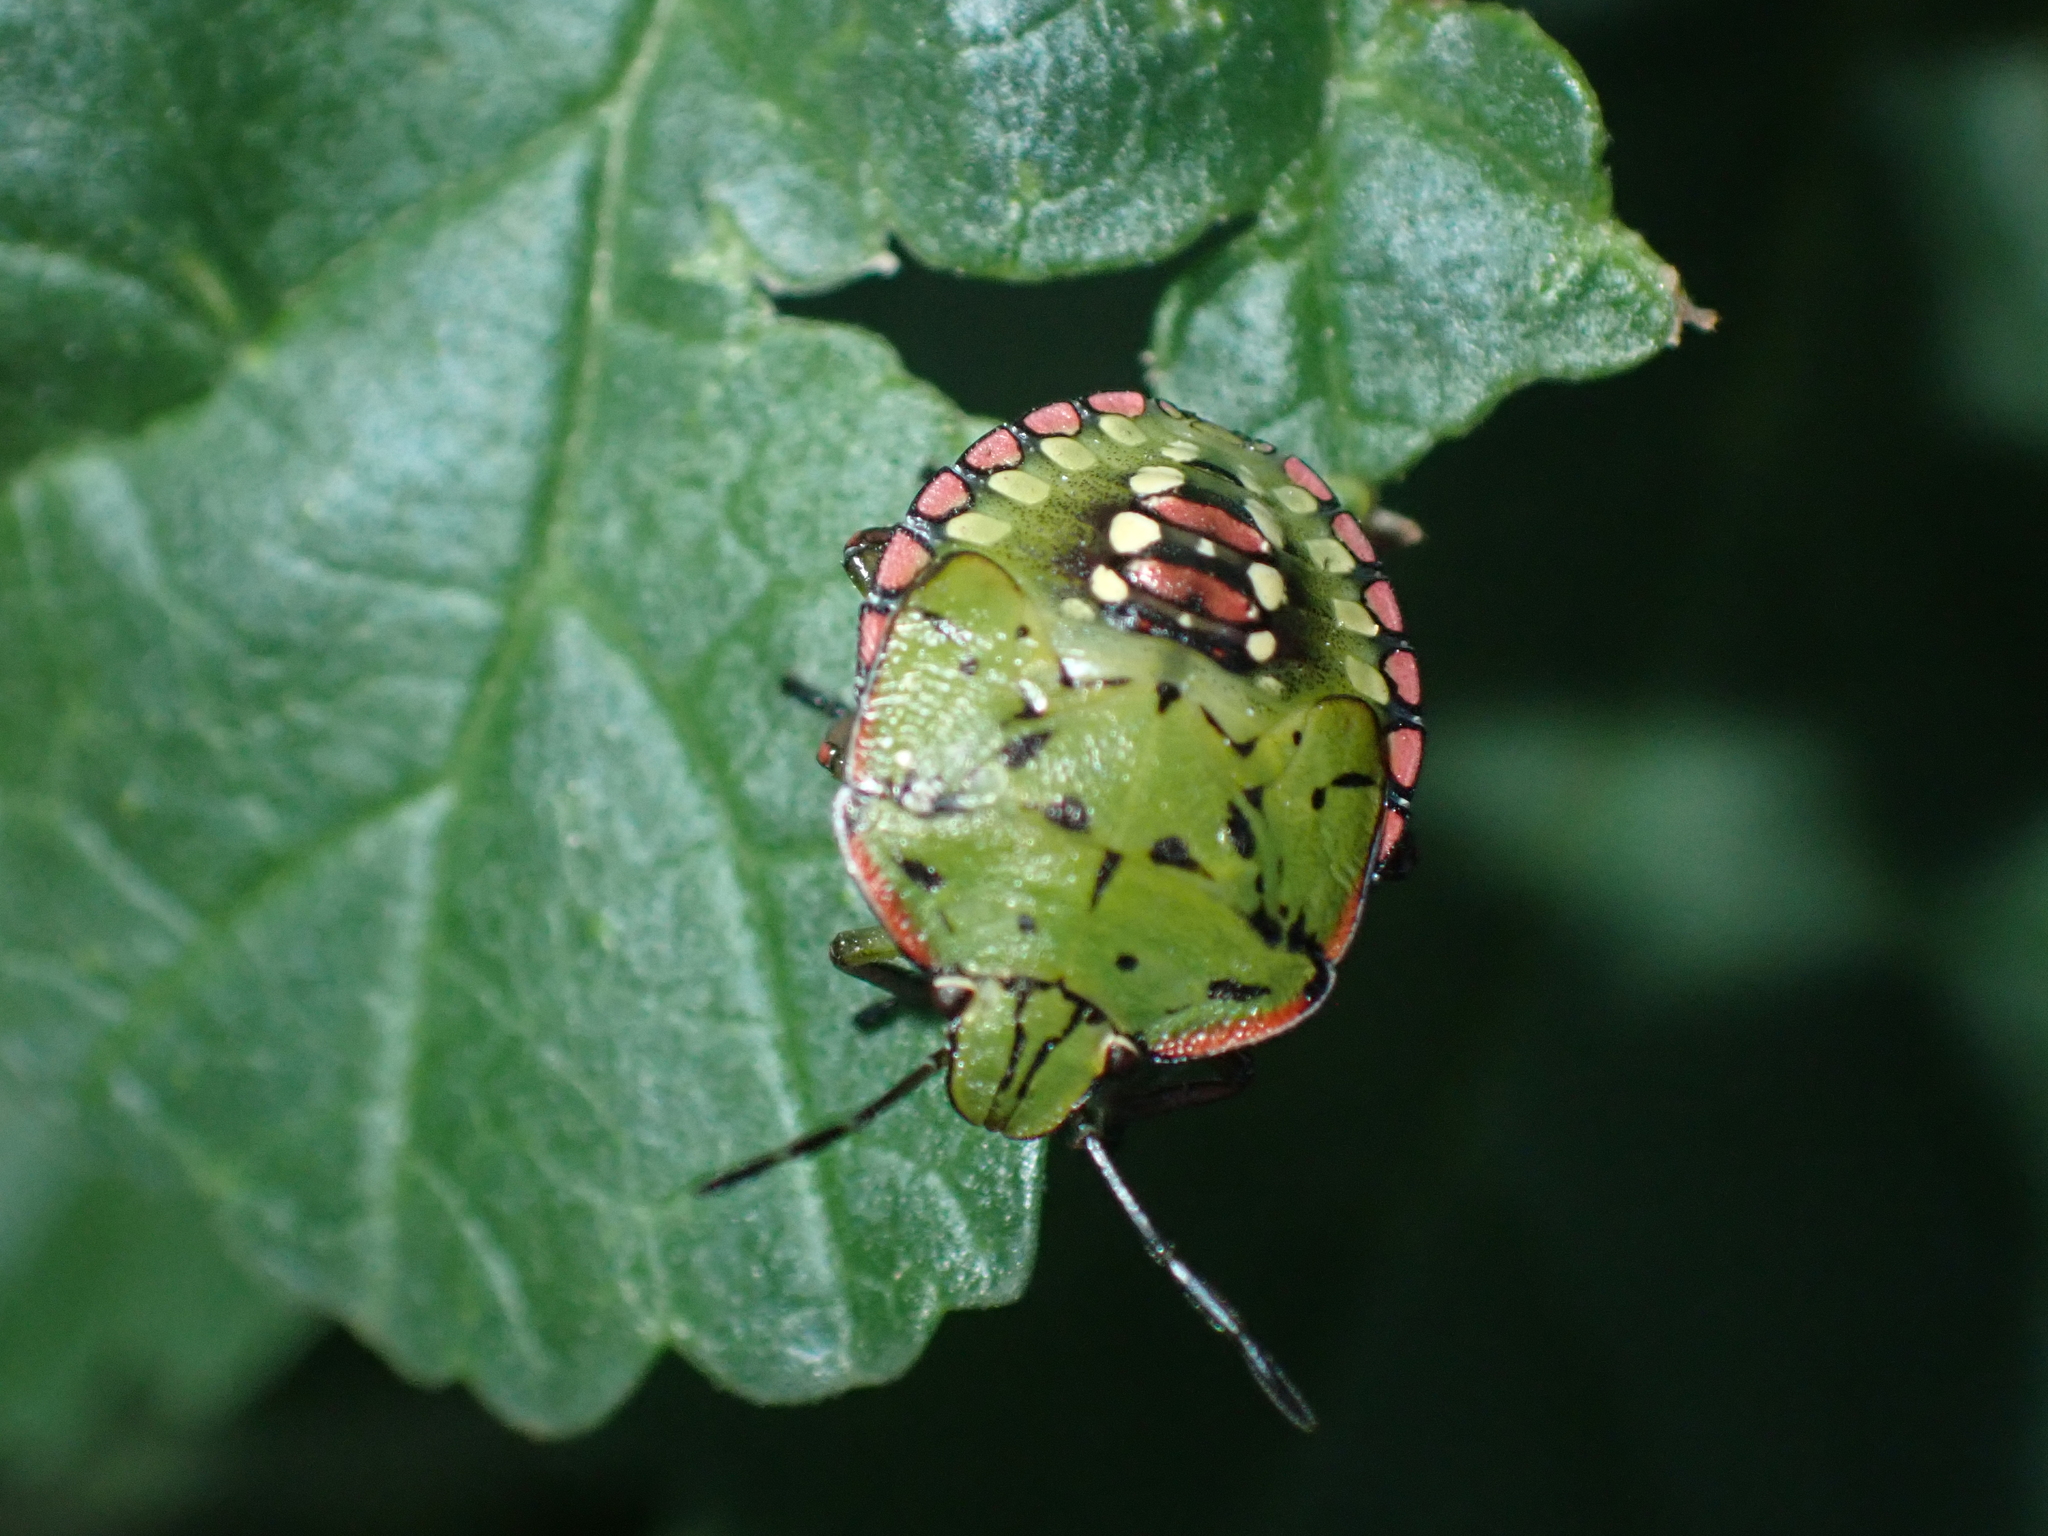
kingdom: Animalia
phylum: Arthropoda
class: Insecta
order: Hemiptera
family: Pentatomidae
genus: Nezara
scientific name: Nezara viridula
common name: Southern green stink bug
